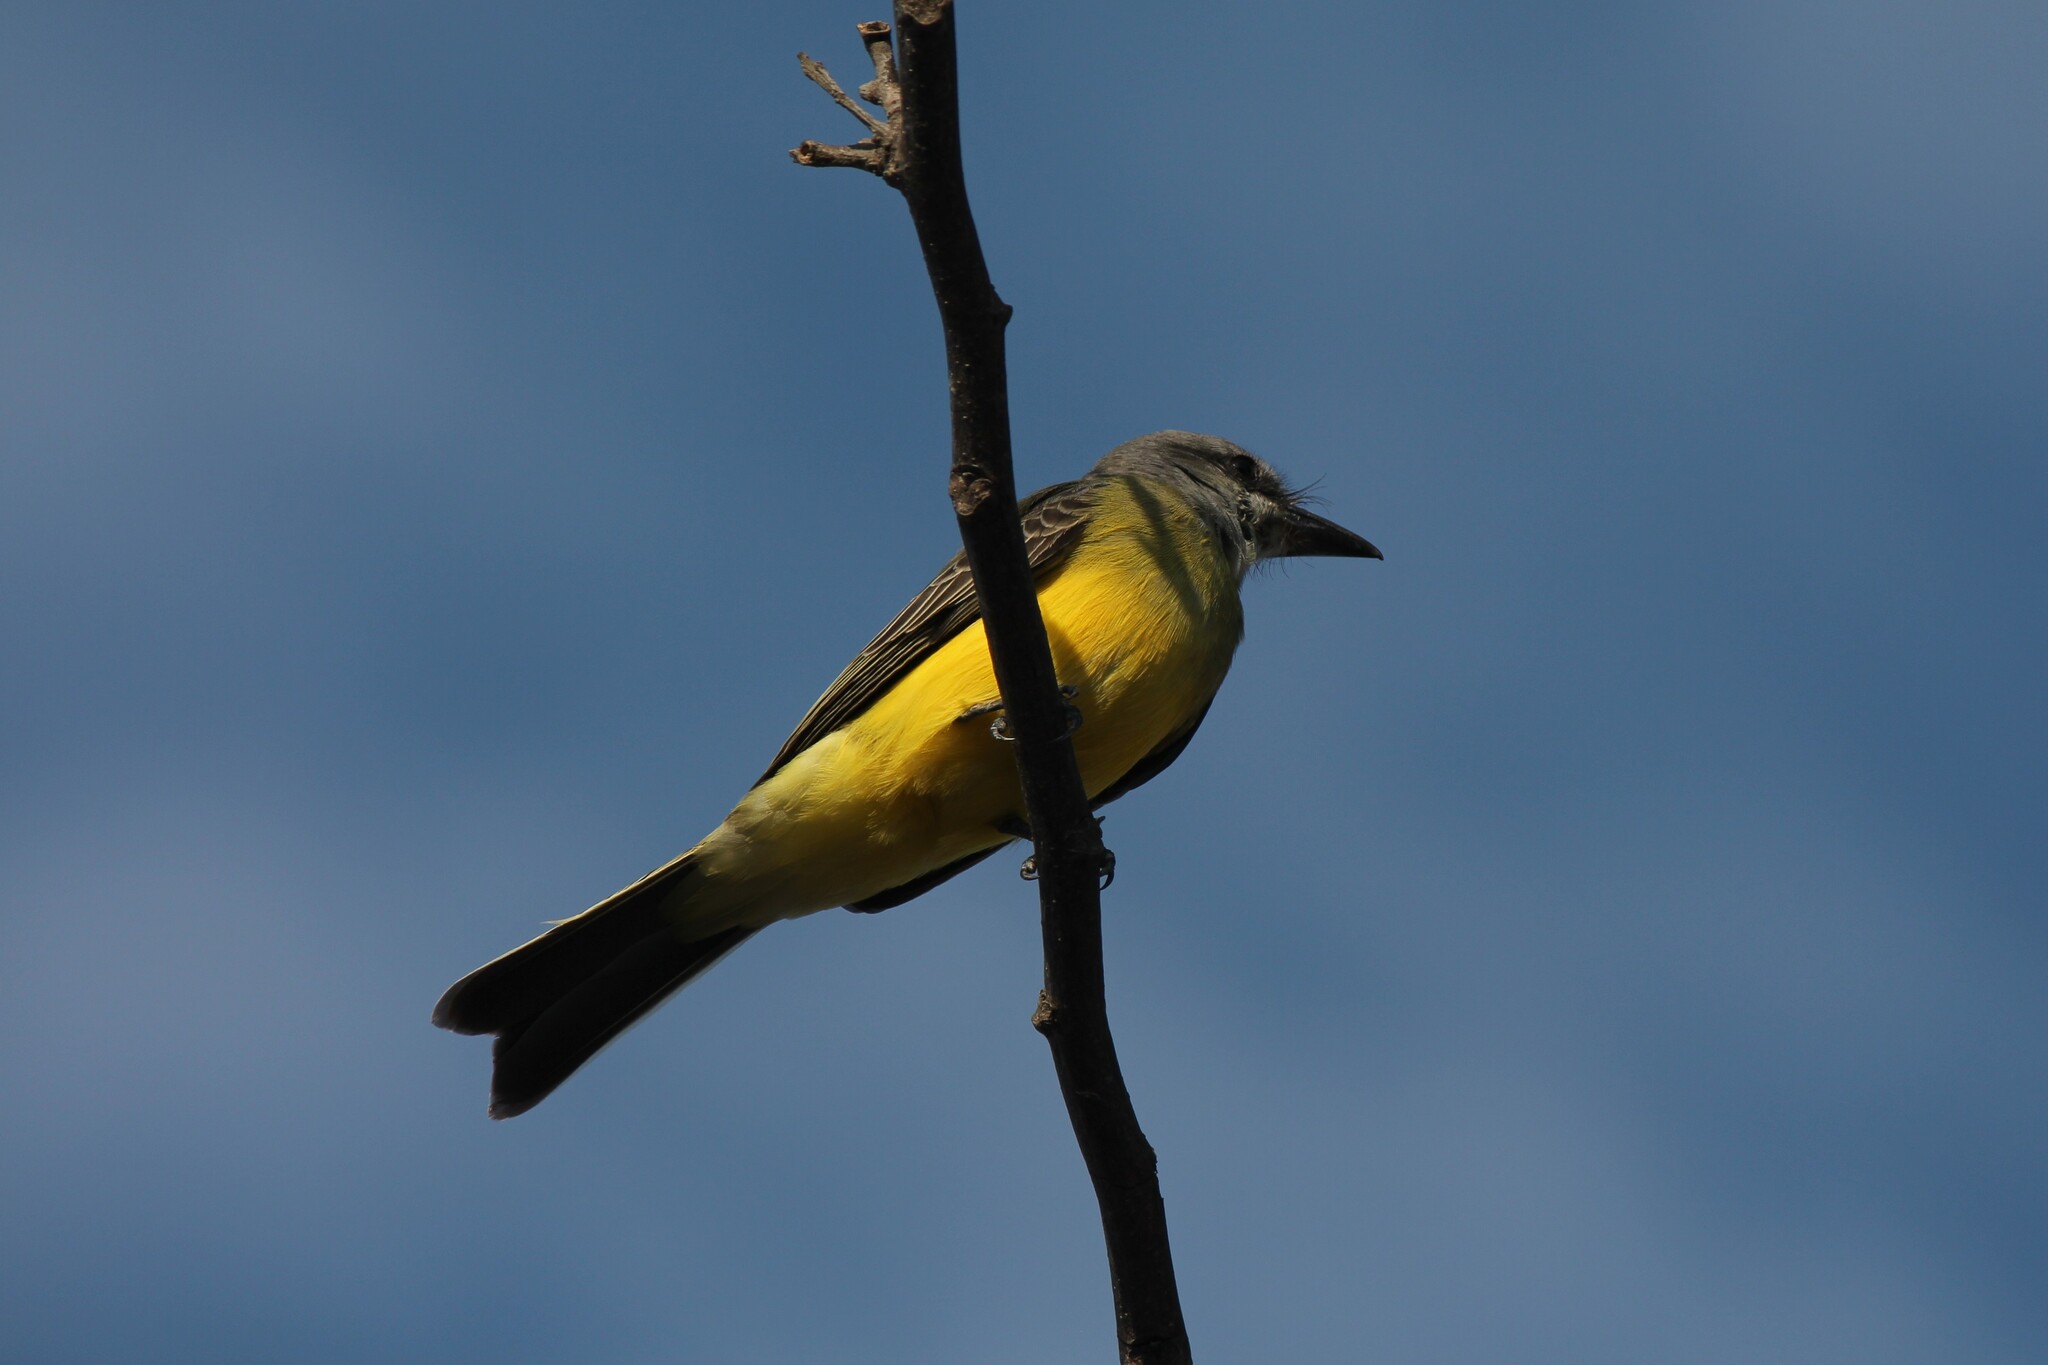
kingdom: Animalia
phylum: Chordata
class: Aves
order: Passeriformes
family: Tyrannidae
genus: Tyrannus
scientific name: Tyrannus melancholicus
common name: Tropical kingbird
